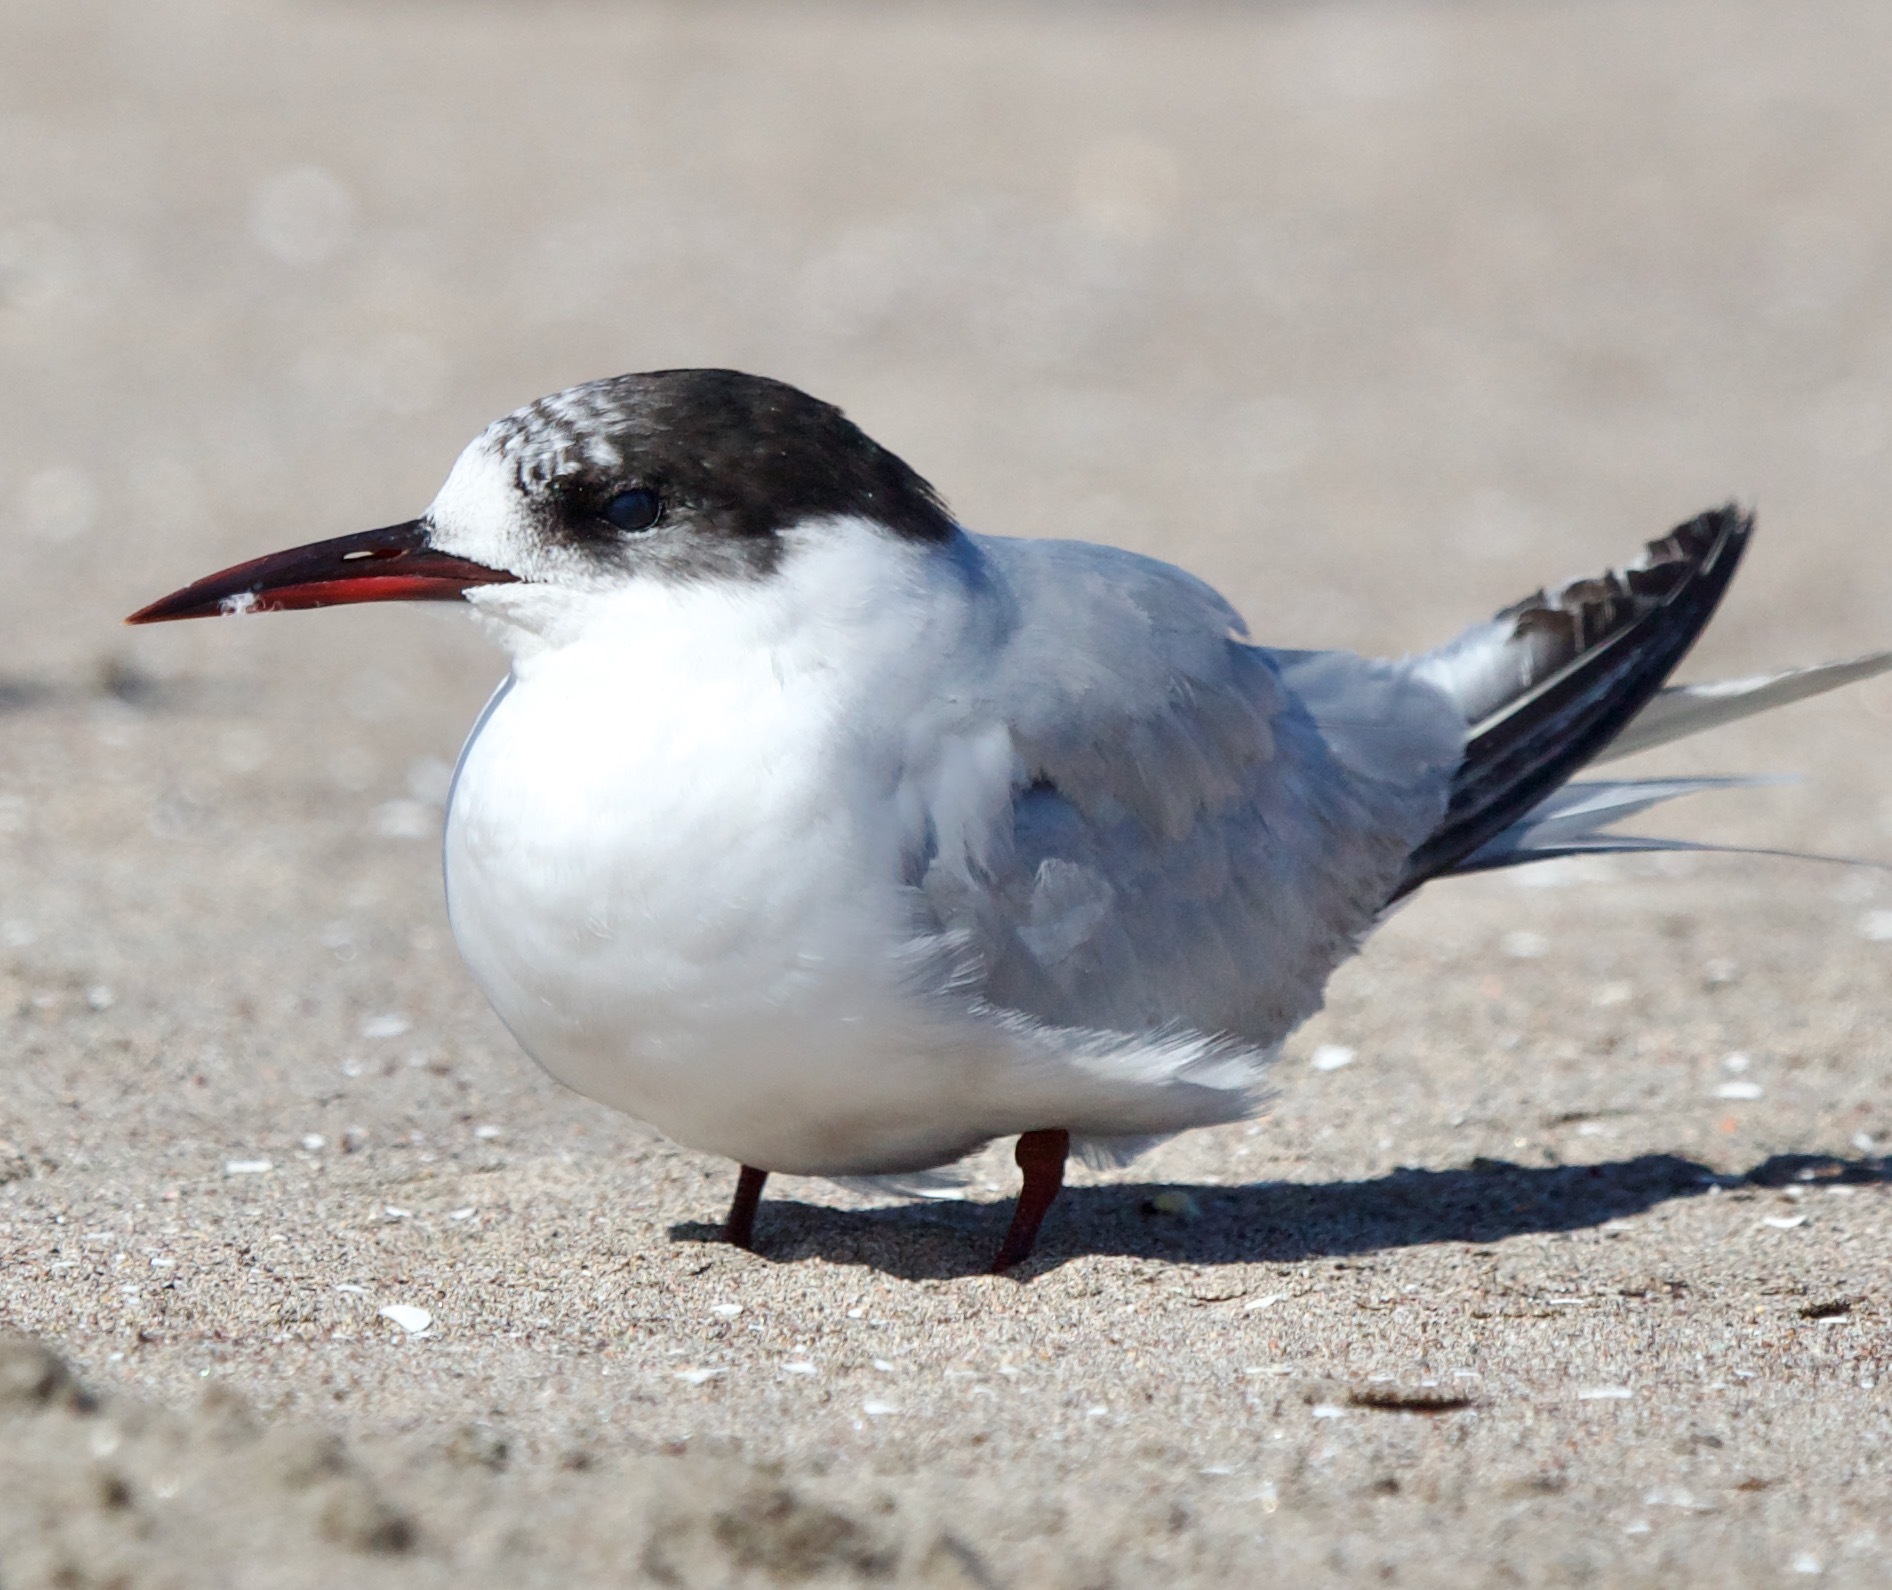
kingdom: Animalia
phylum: Chordata
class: Aves
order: Charadriiformes
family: Laridae
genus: Sterna
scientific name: Sterna hirundinacea
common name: South american tern
